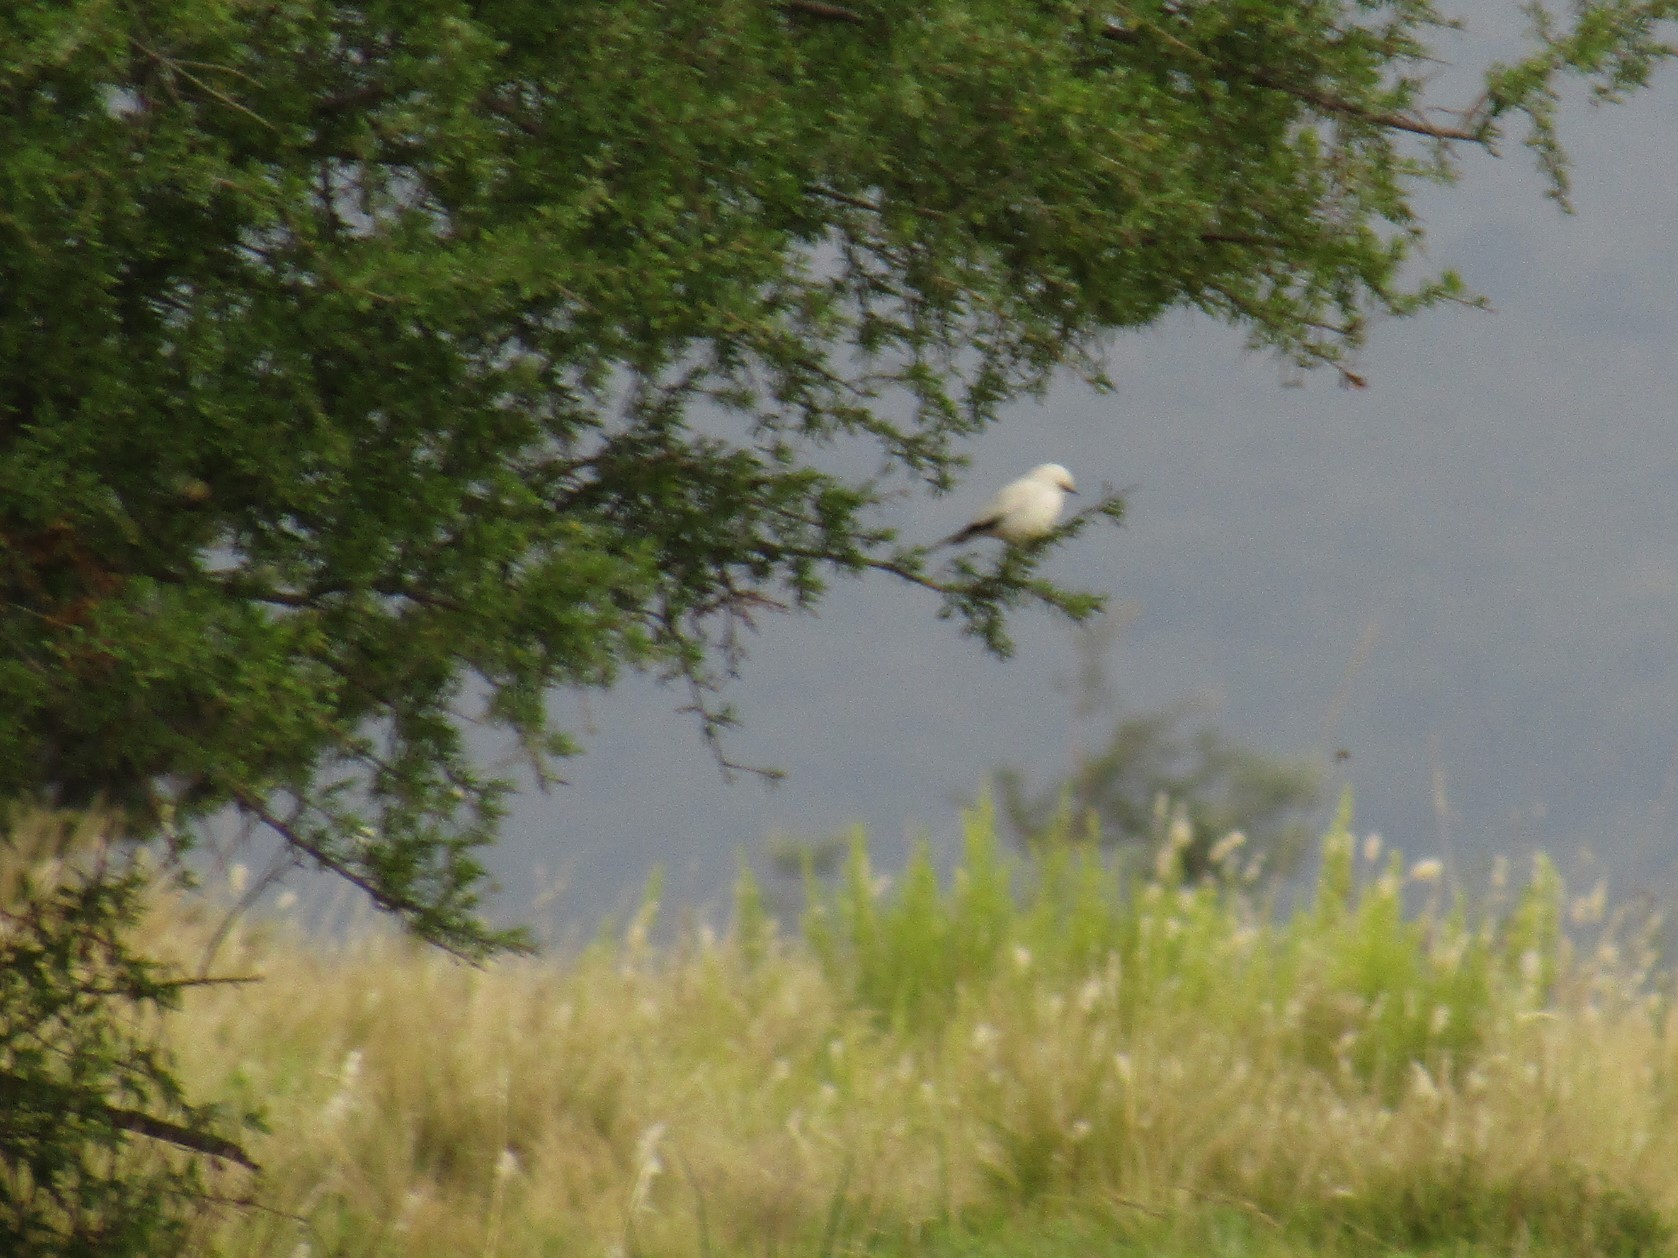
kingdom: Animalia
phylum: Chordata
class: Aves
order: Passeriformes
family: Tyrannidae
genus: Xolmis
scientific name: Xolmis irupero
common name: White monjita
